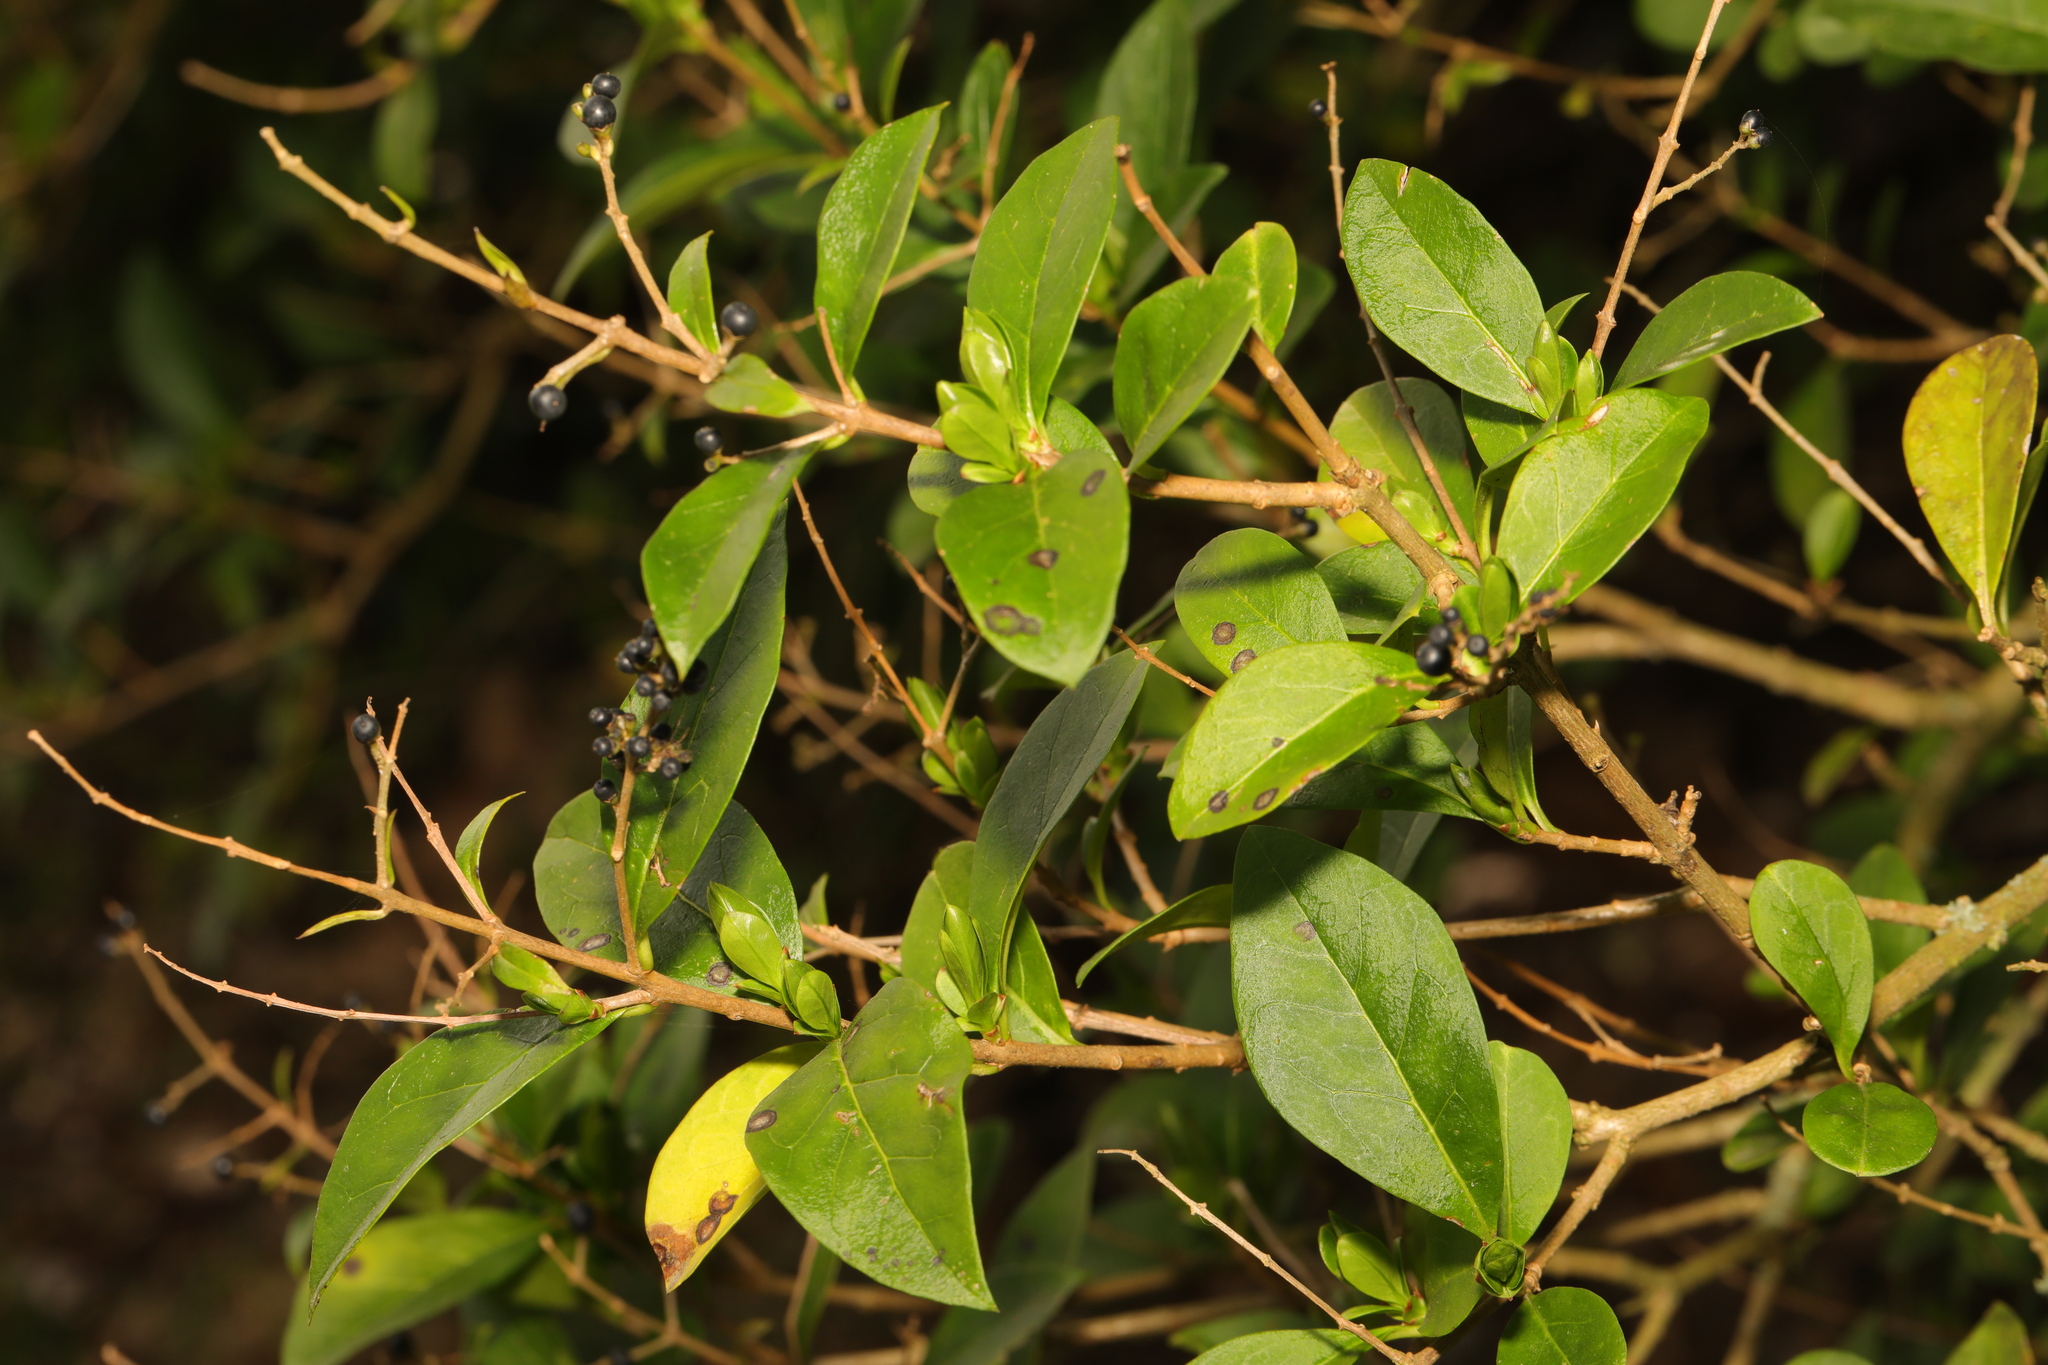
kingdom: Plantae
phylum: Tracheophyta
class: Magnoliopsida
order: Lamiales
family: Oleaceae
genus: Ligustrum
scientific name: Ligustrum ovalifolium
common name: California privet
